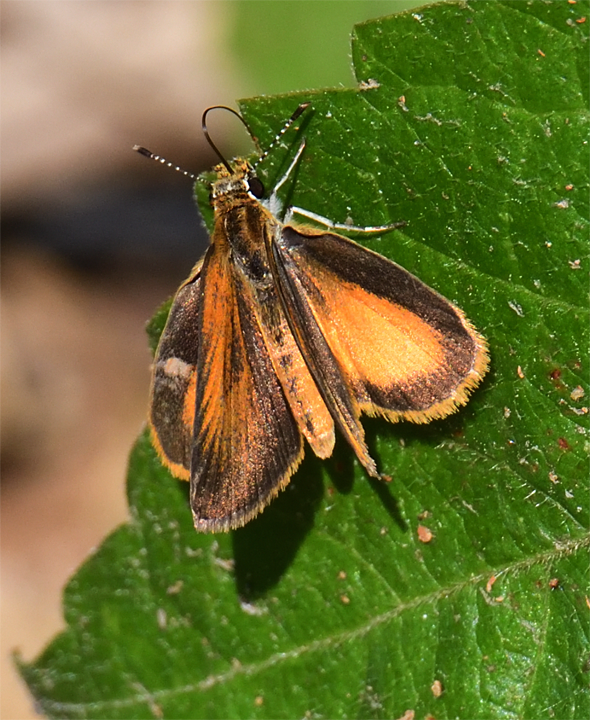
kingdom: Animalia
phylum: Arthropoda
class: Insecta
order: Lepidoptera
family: Hesperiidae
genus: Ancyloxypha
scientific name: Ancyloxypha numitor
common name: Least skipper
